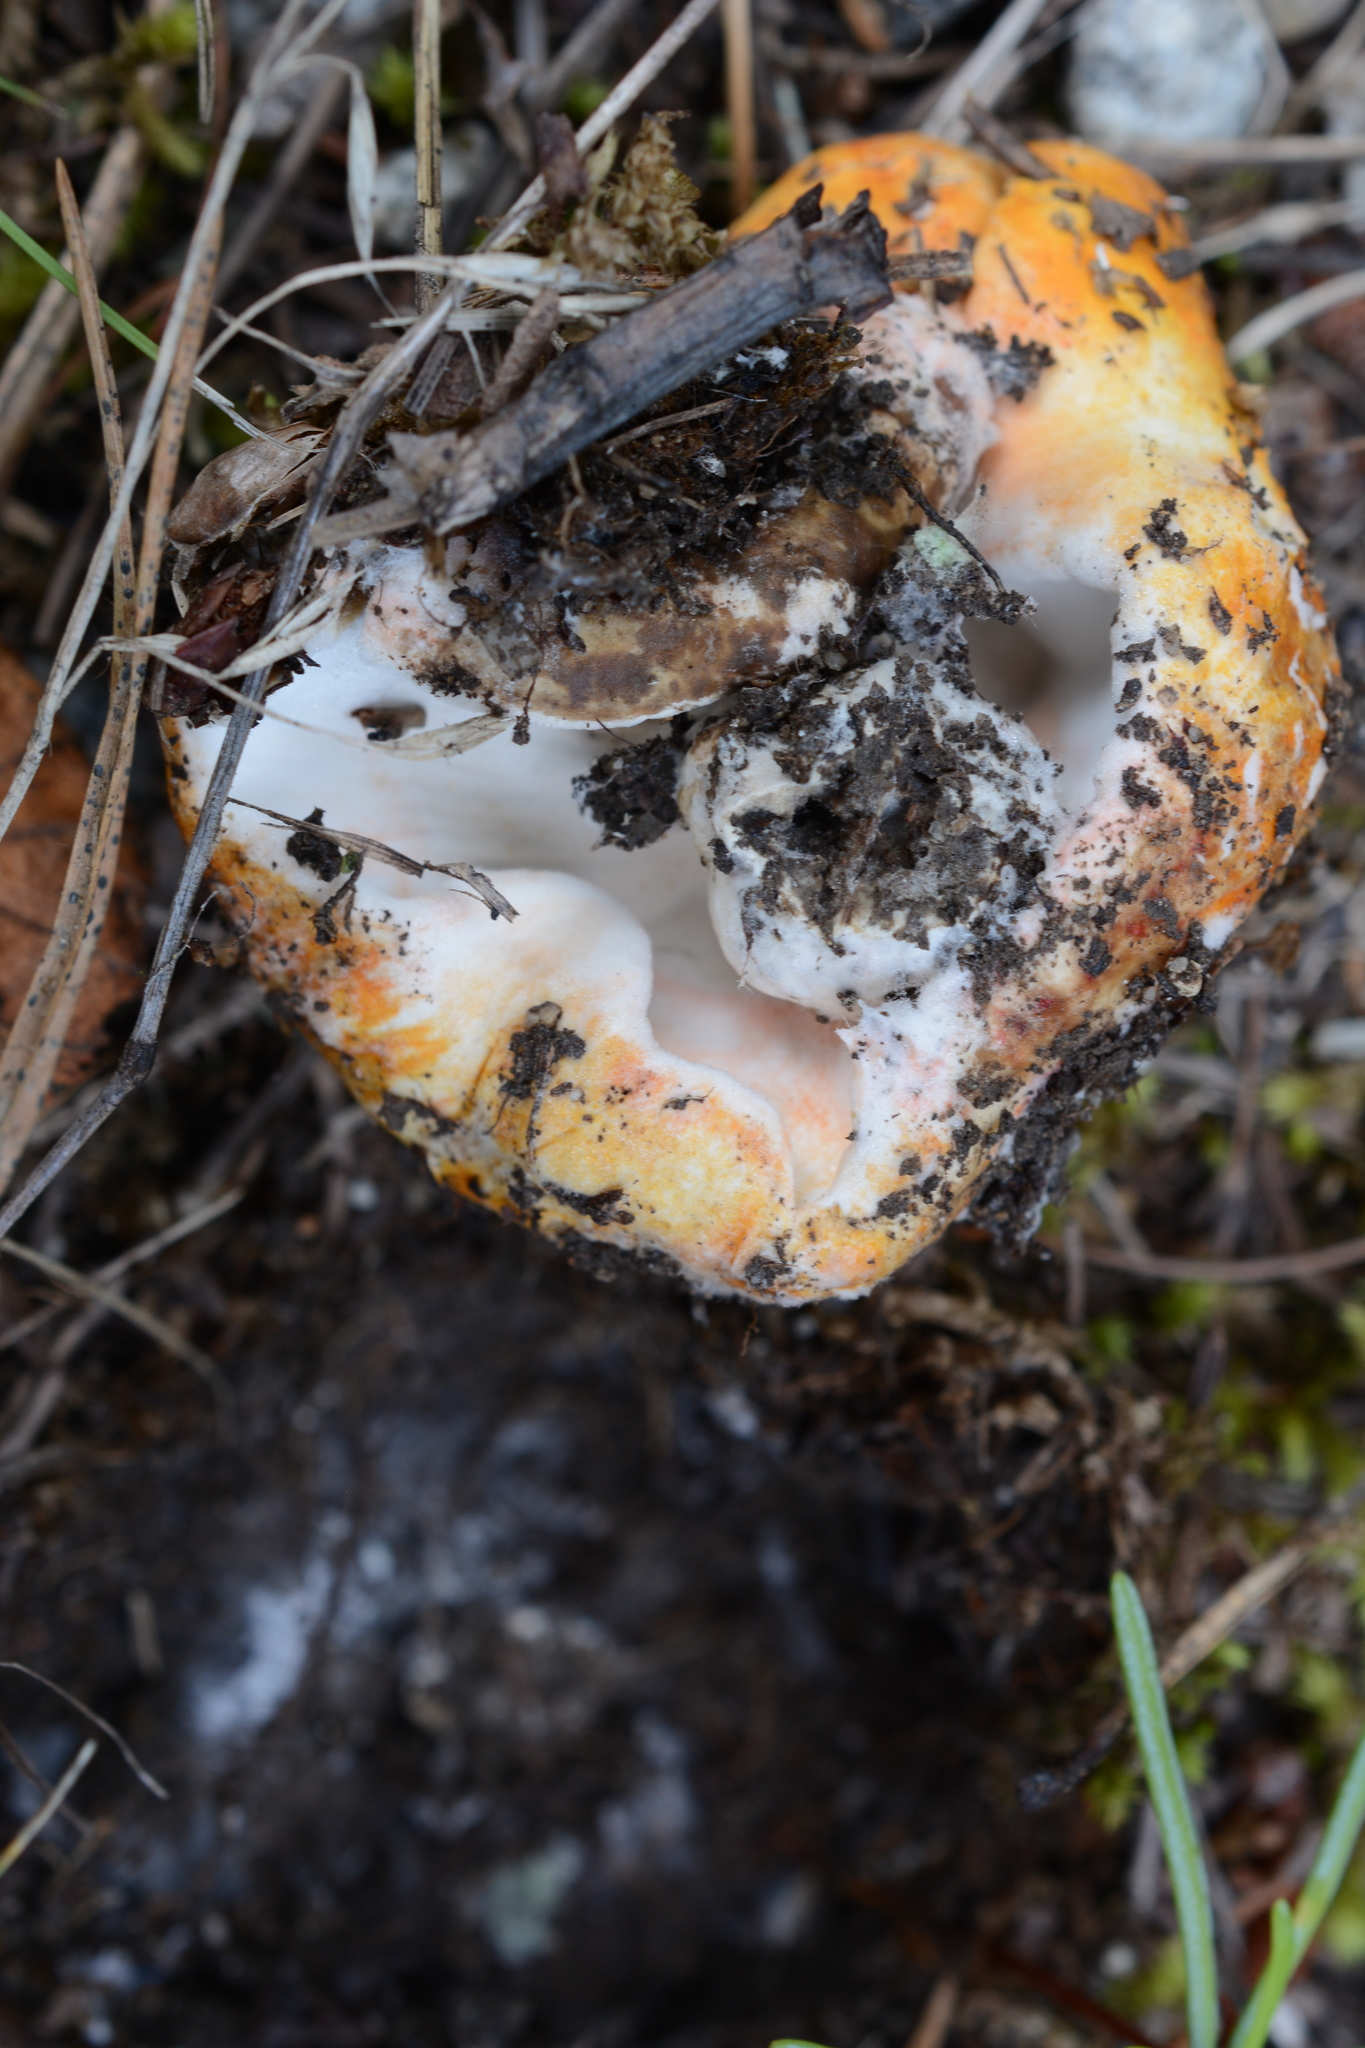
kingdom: Fungi
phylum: Ascomycota
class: Sordariomycetes
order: Hypocreales
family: Hypocreaceae
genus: Hypomyces
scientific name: Hypomyces lactifluorum
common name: Lobster mushroom
